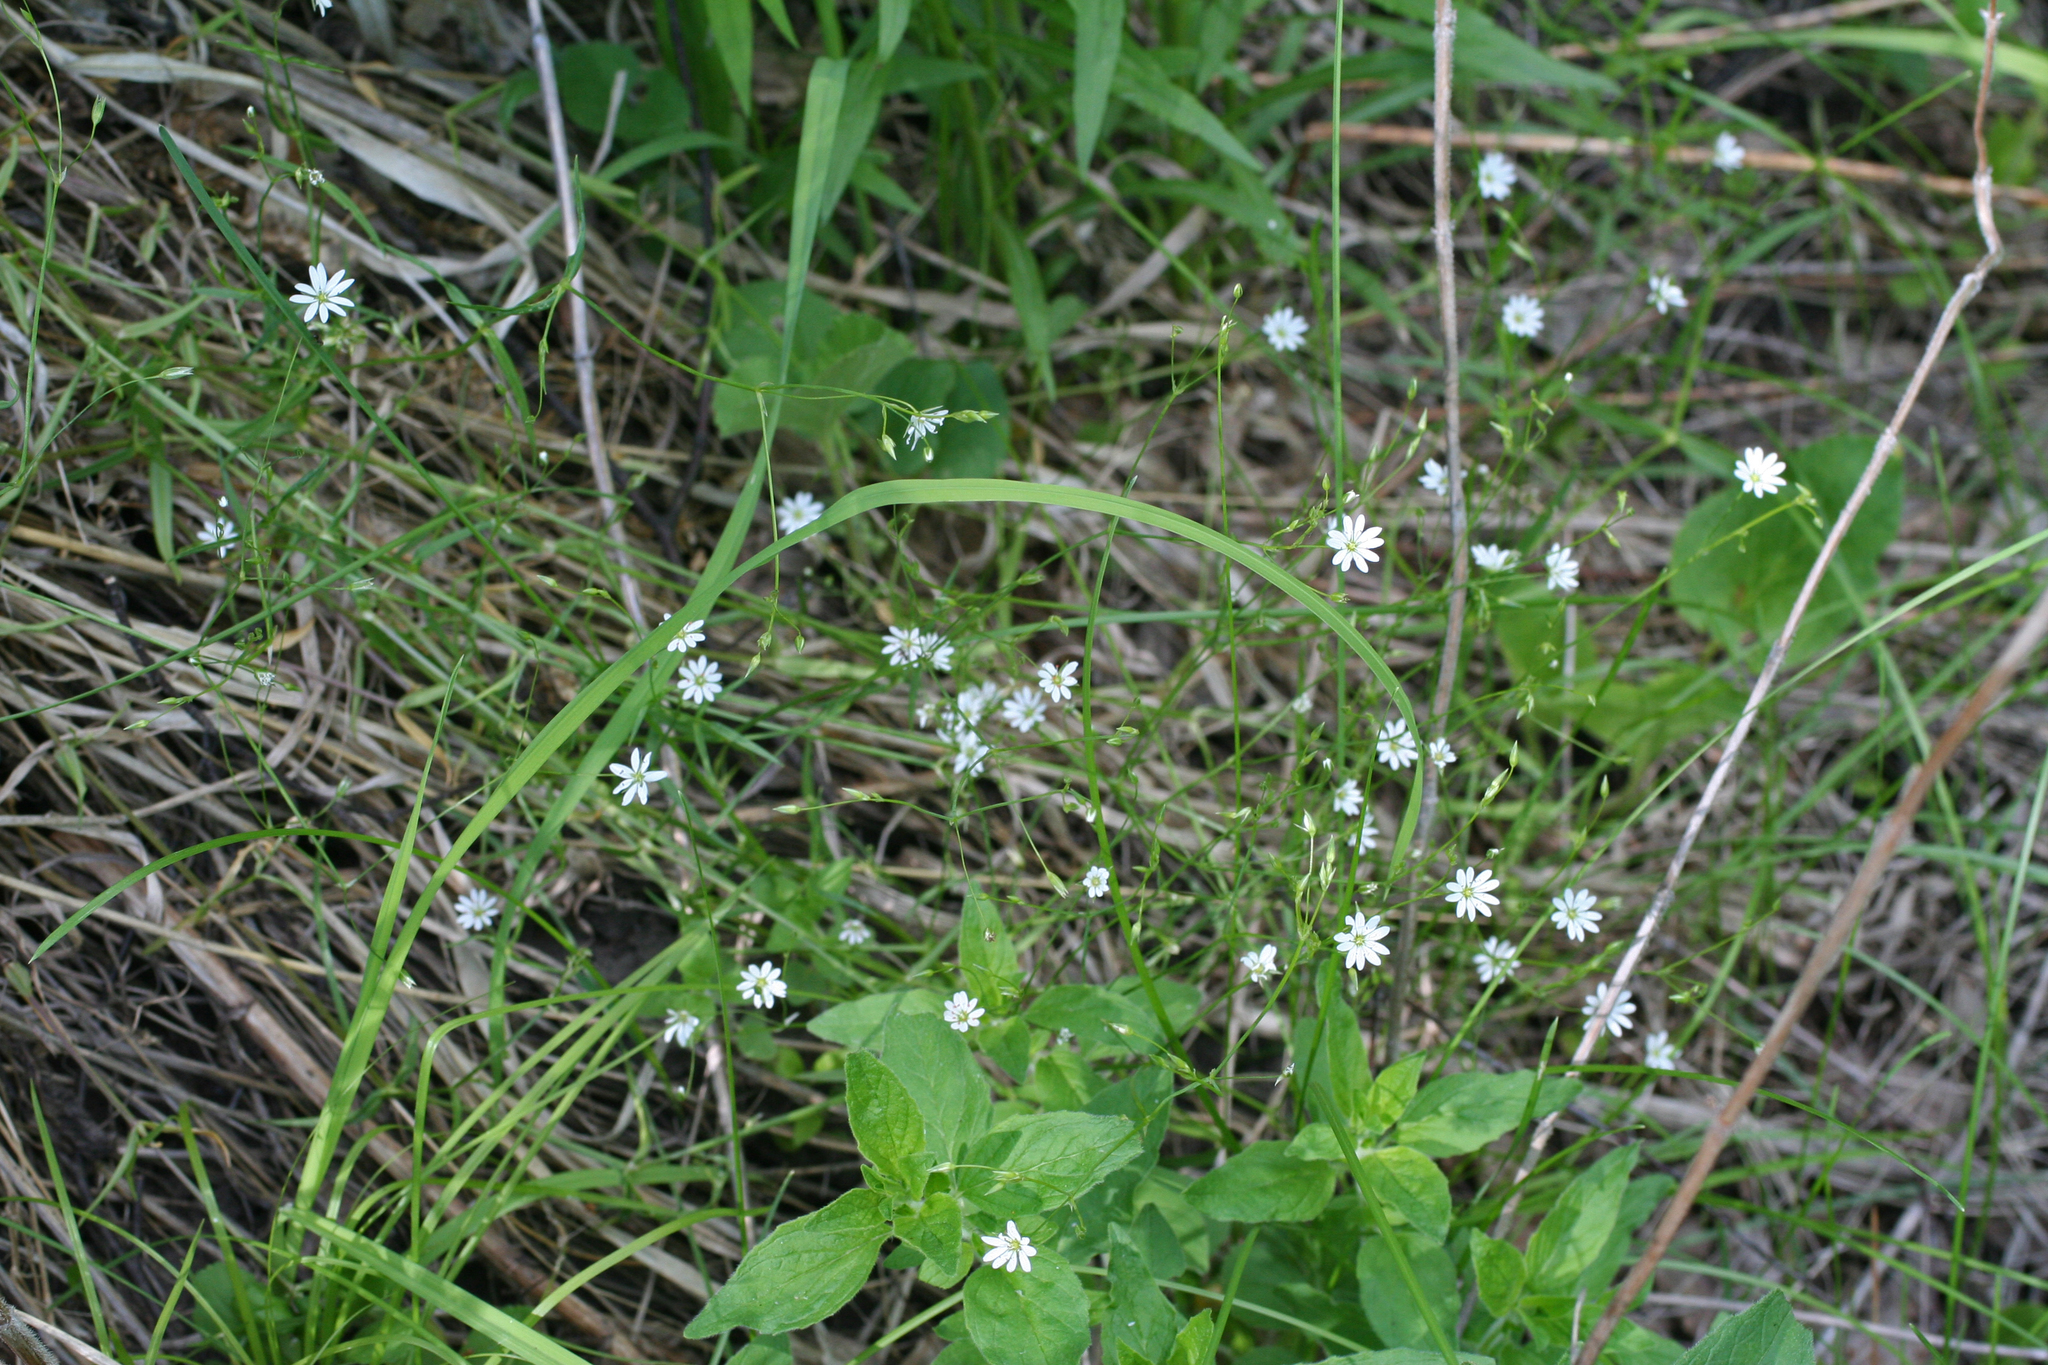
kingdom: Plantae
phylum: Tracheophyta
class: Magnoliopsida
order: Caryophyllales
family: Caryophyllaceae
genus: Stellaria
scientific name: Stellaria graminea
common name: Grass-like starwort
